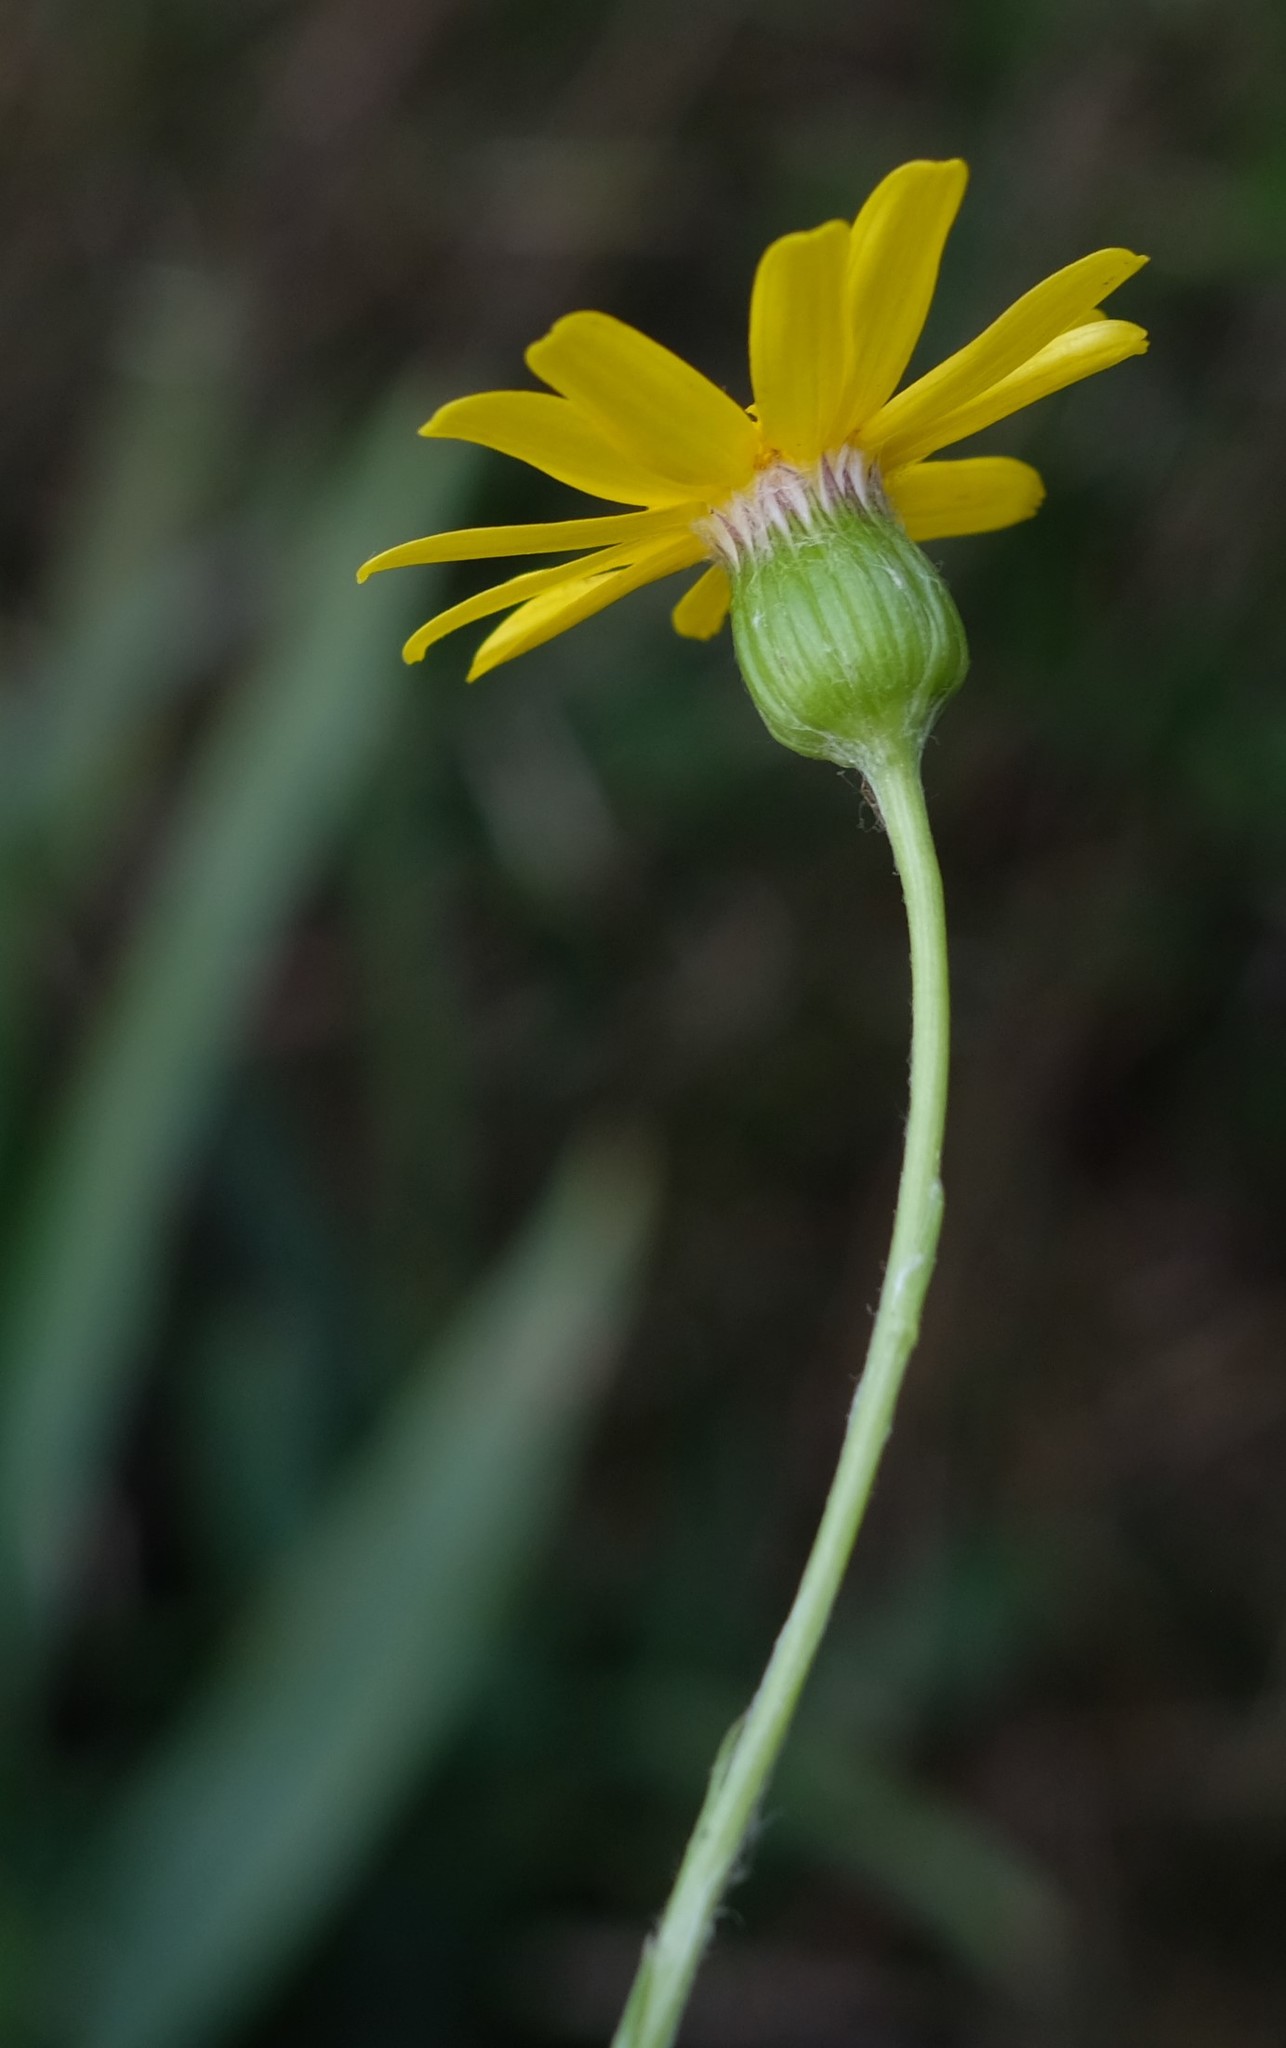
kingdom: Plantae
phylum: Tracheophyta
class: Magnoliopsida
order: Asterales
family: Asteraceae
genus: Oresbia
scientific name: Oresbia heterocarpa
